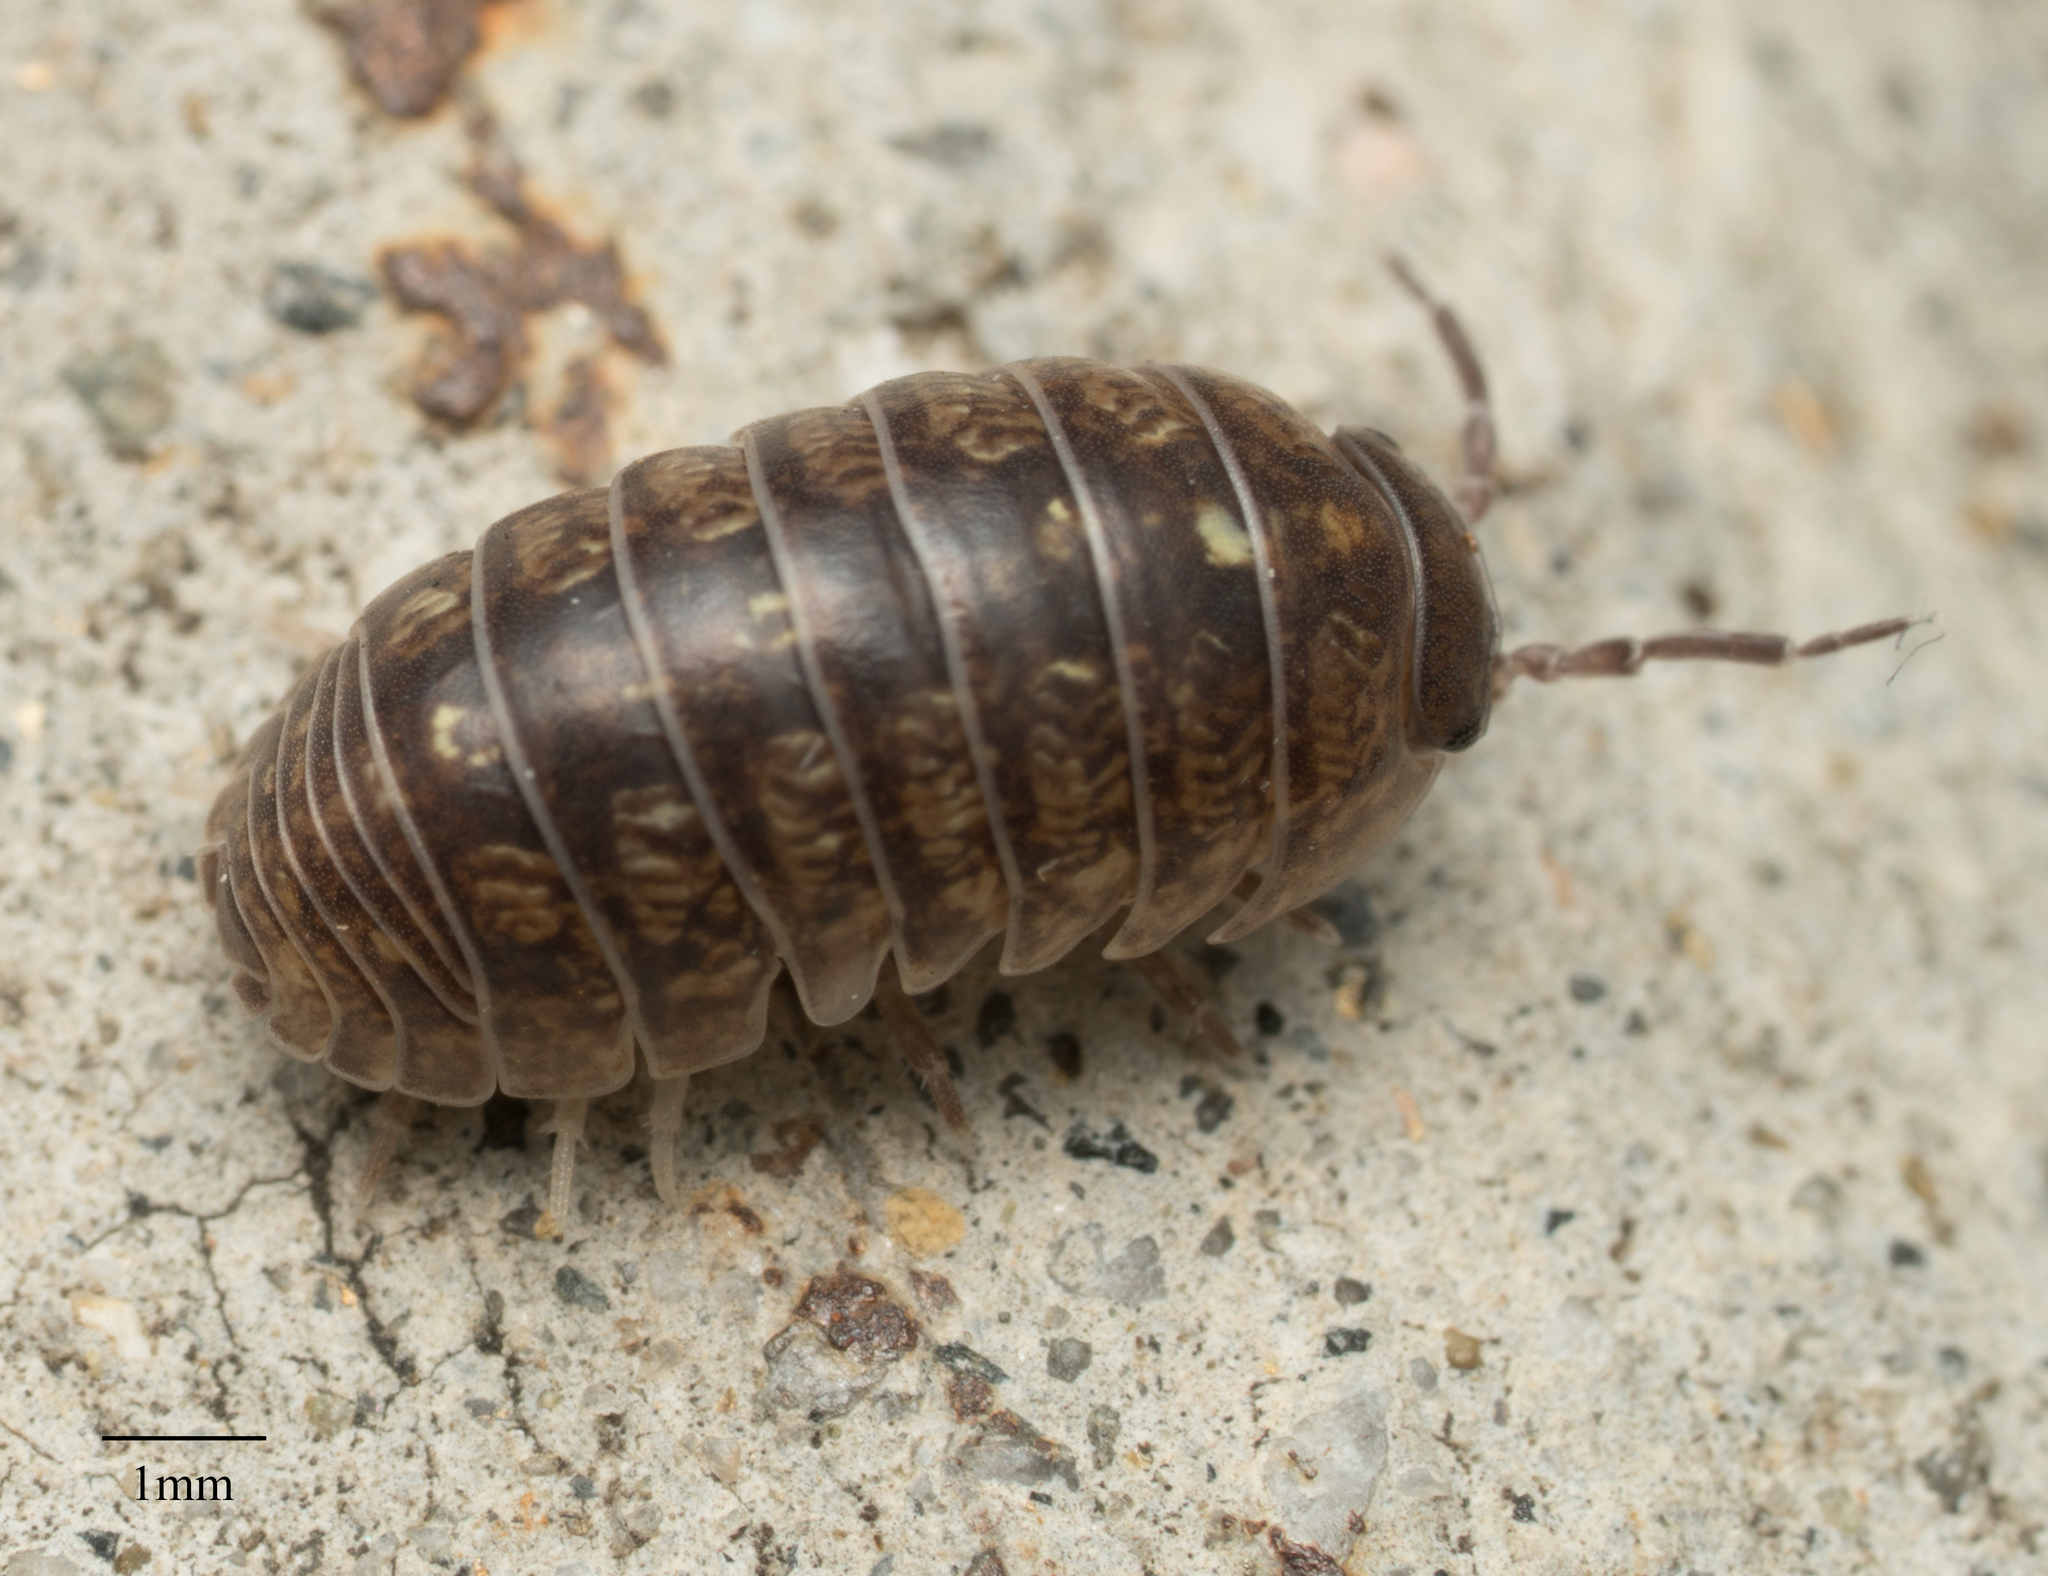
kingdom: Animalia
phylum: Arthropoda
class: Malacostraca
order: Isopoda
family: Armadillidiidae
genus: Armadillidium
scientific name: Armadillidium vulgare
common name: Common pill woodlouse
